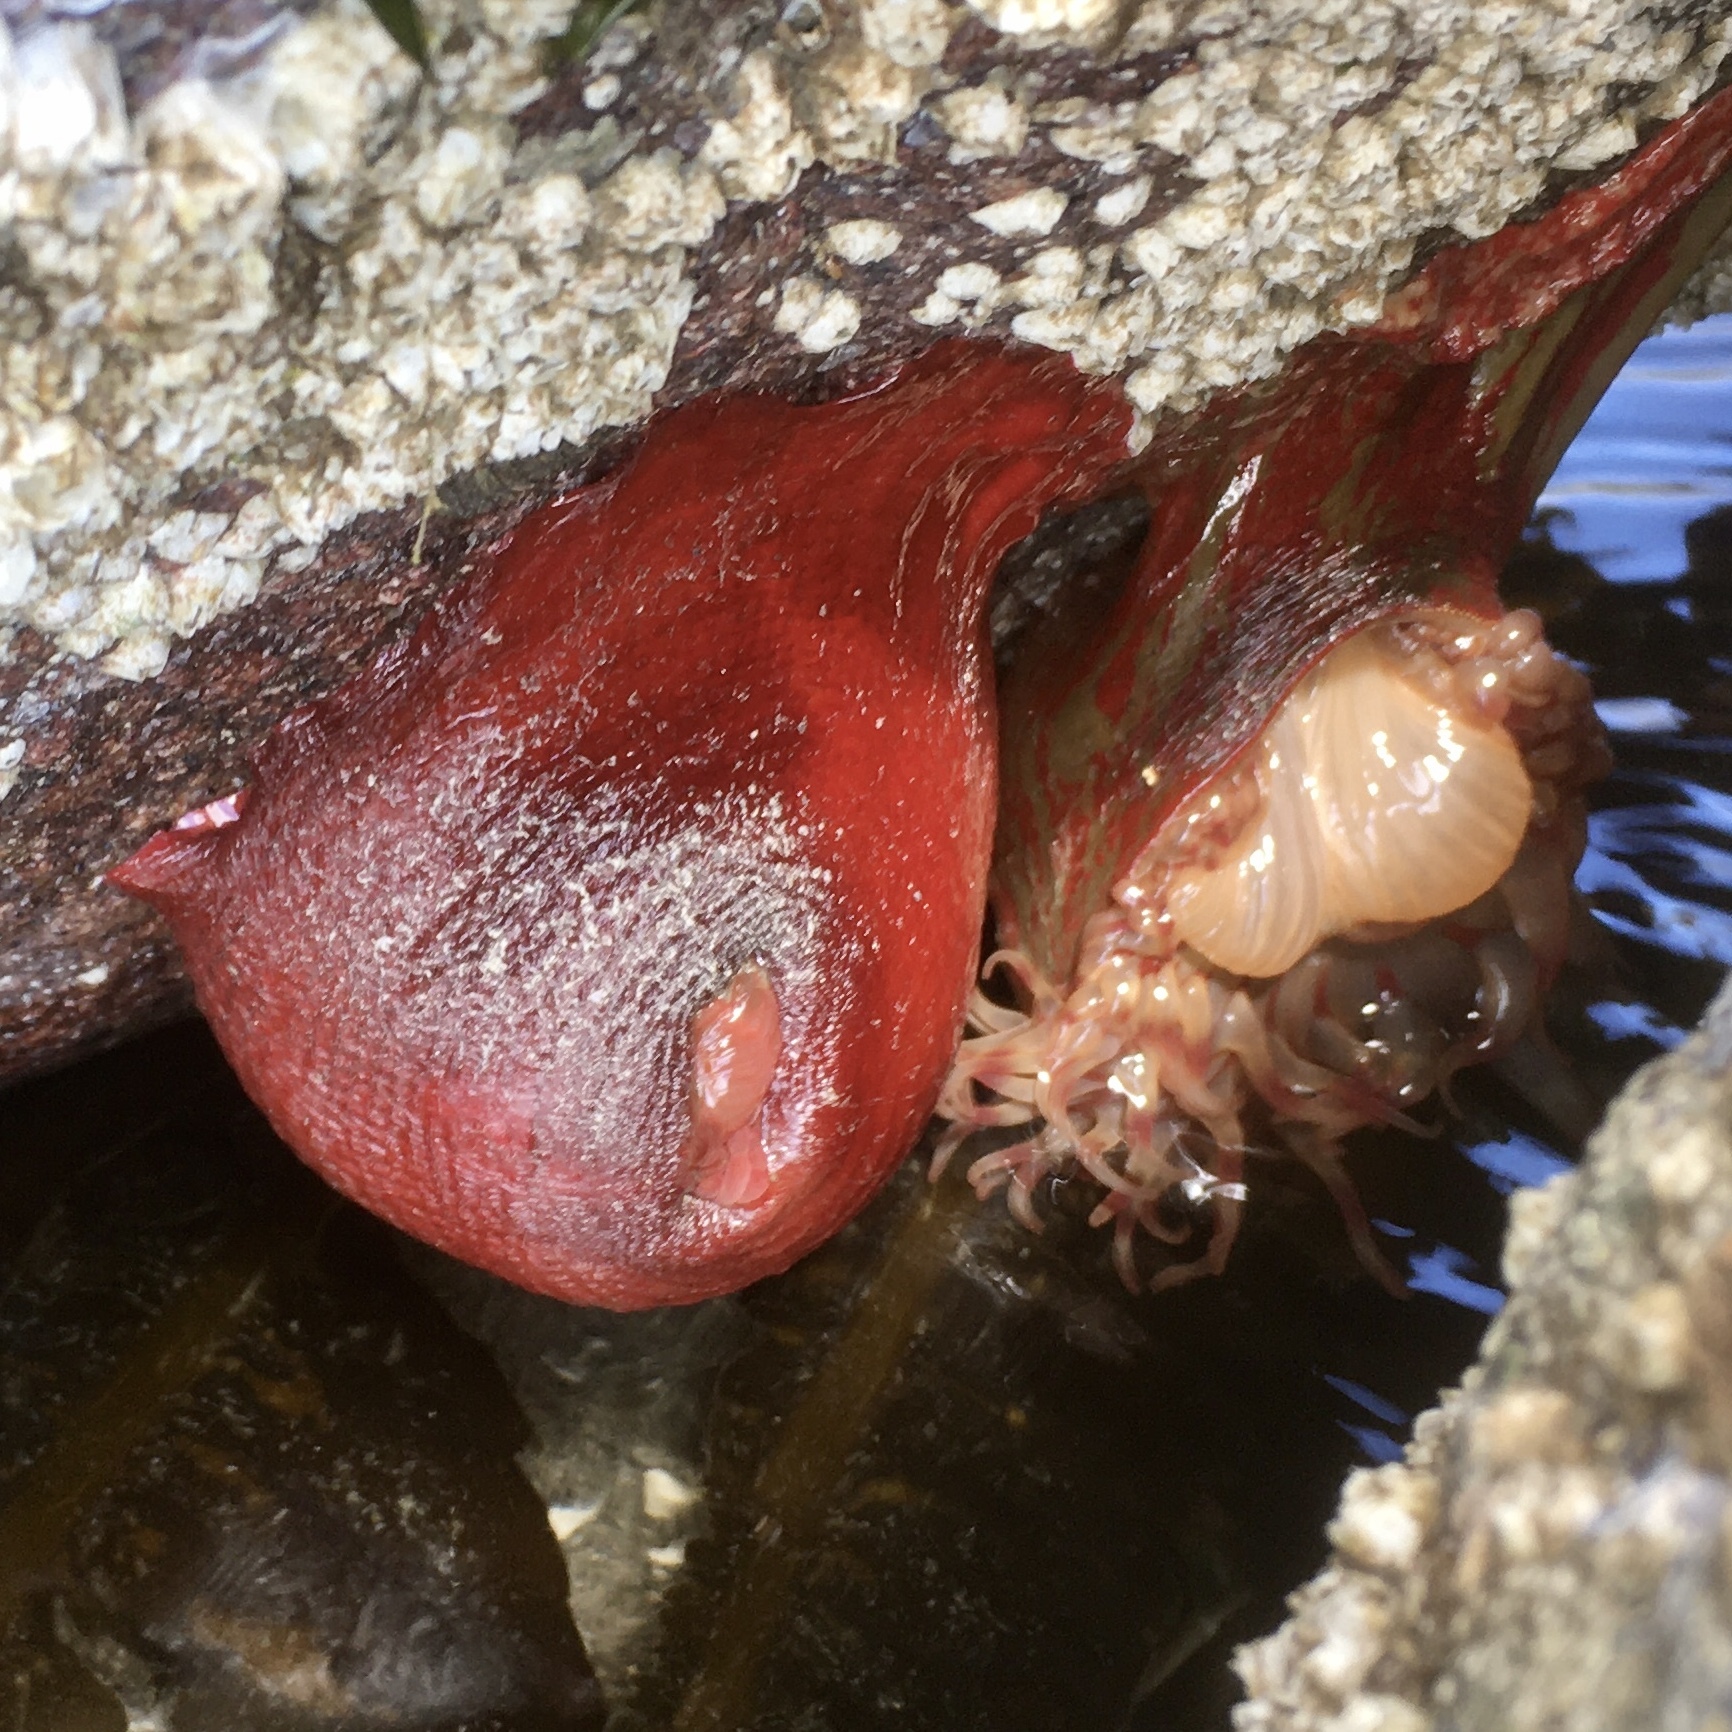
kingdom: Animalia
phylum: Cnidaria
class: Anthozoa
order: Actiniaria
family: Actiniidae
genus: Urticina
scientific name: Urticina grebelnyi
